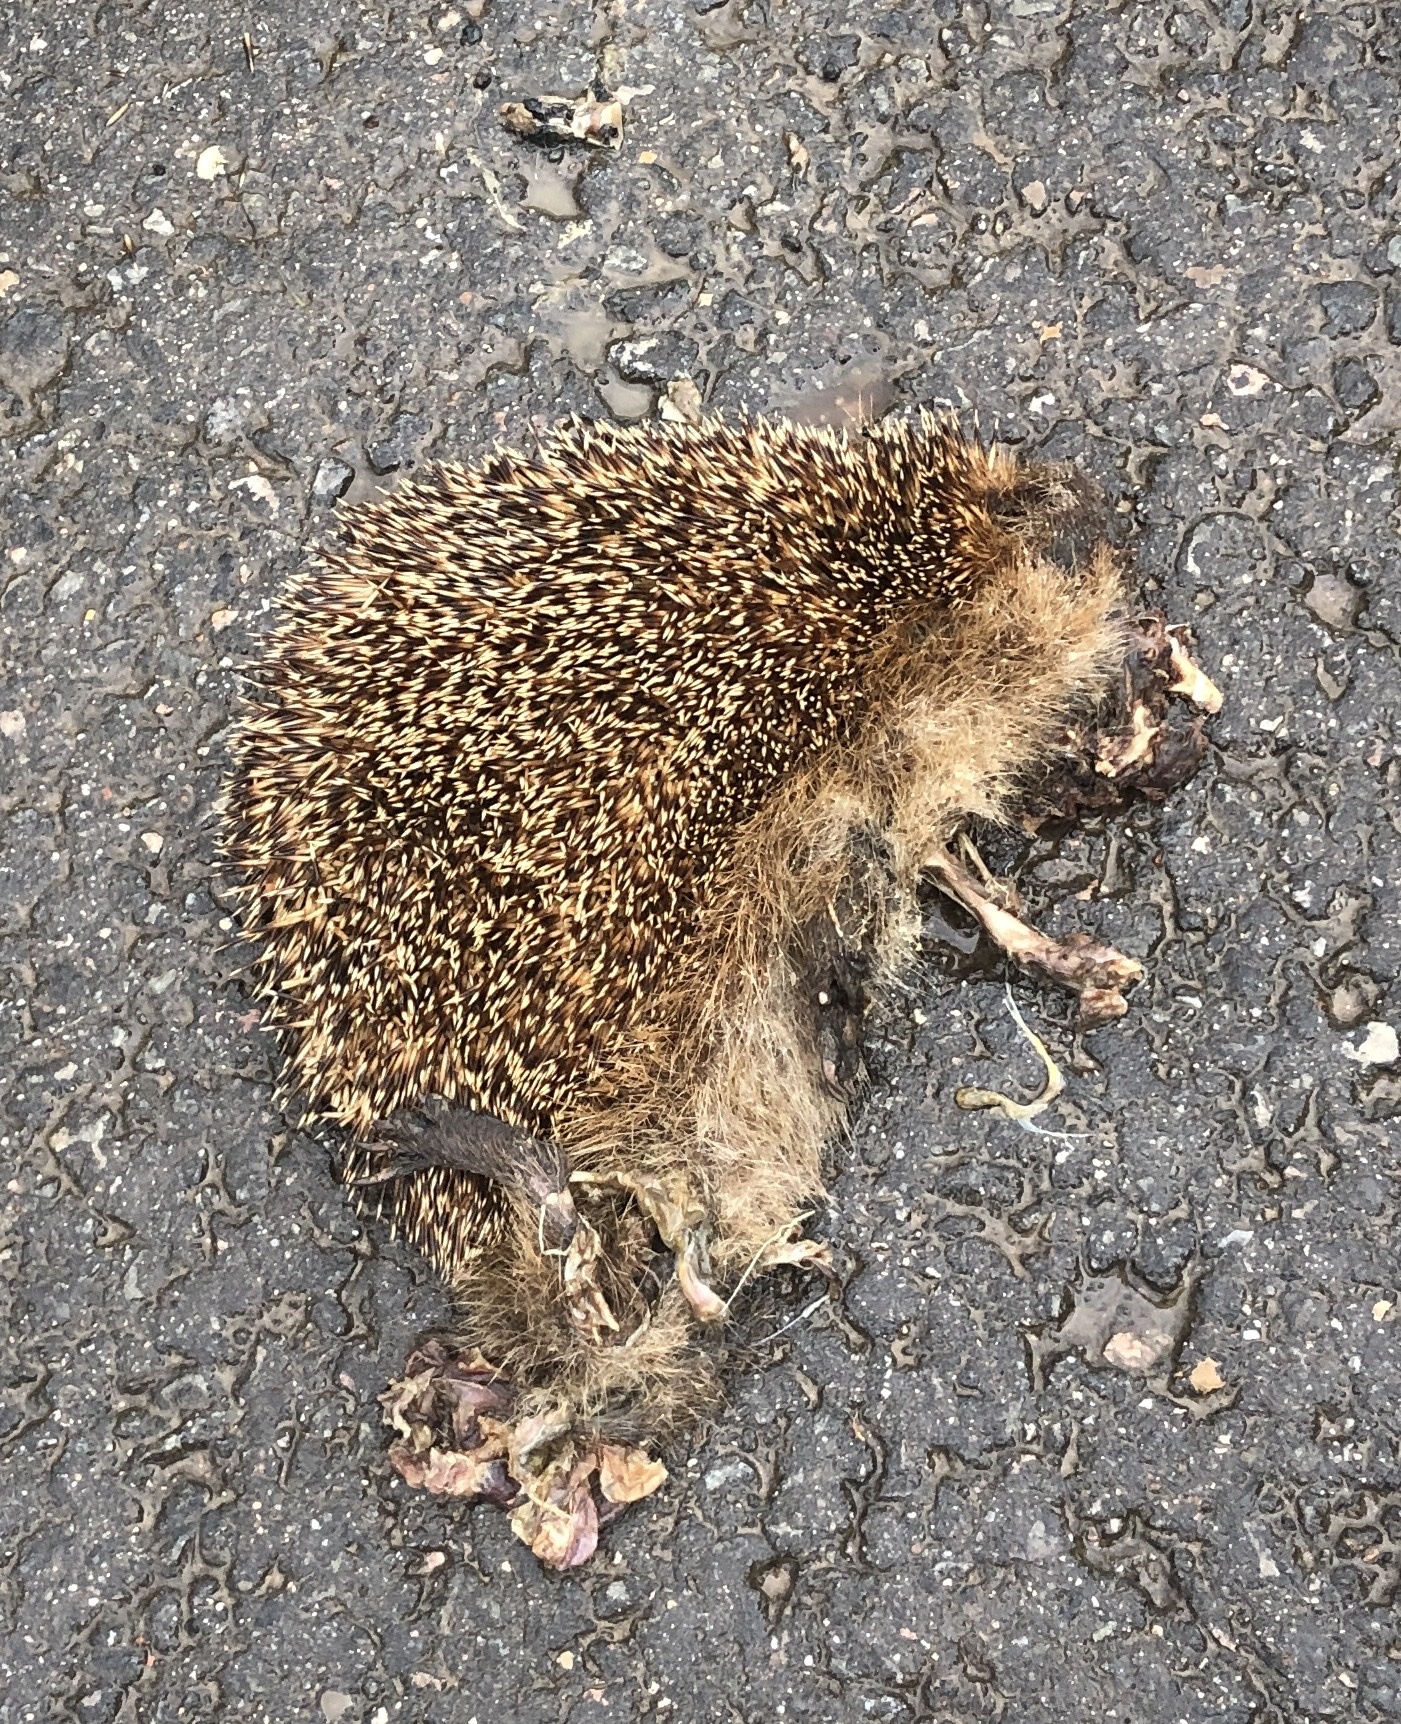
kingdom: Animalia
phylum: Chordata
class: Mammalia
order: Erinaceomorpha
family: Erinaceidae
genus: Erinaceus
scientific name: Erinaceus europaeus
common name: West european hedgehog
